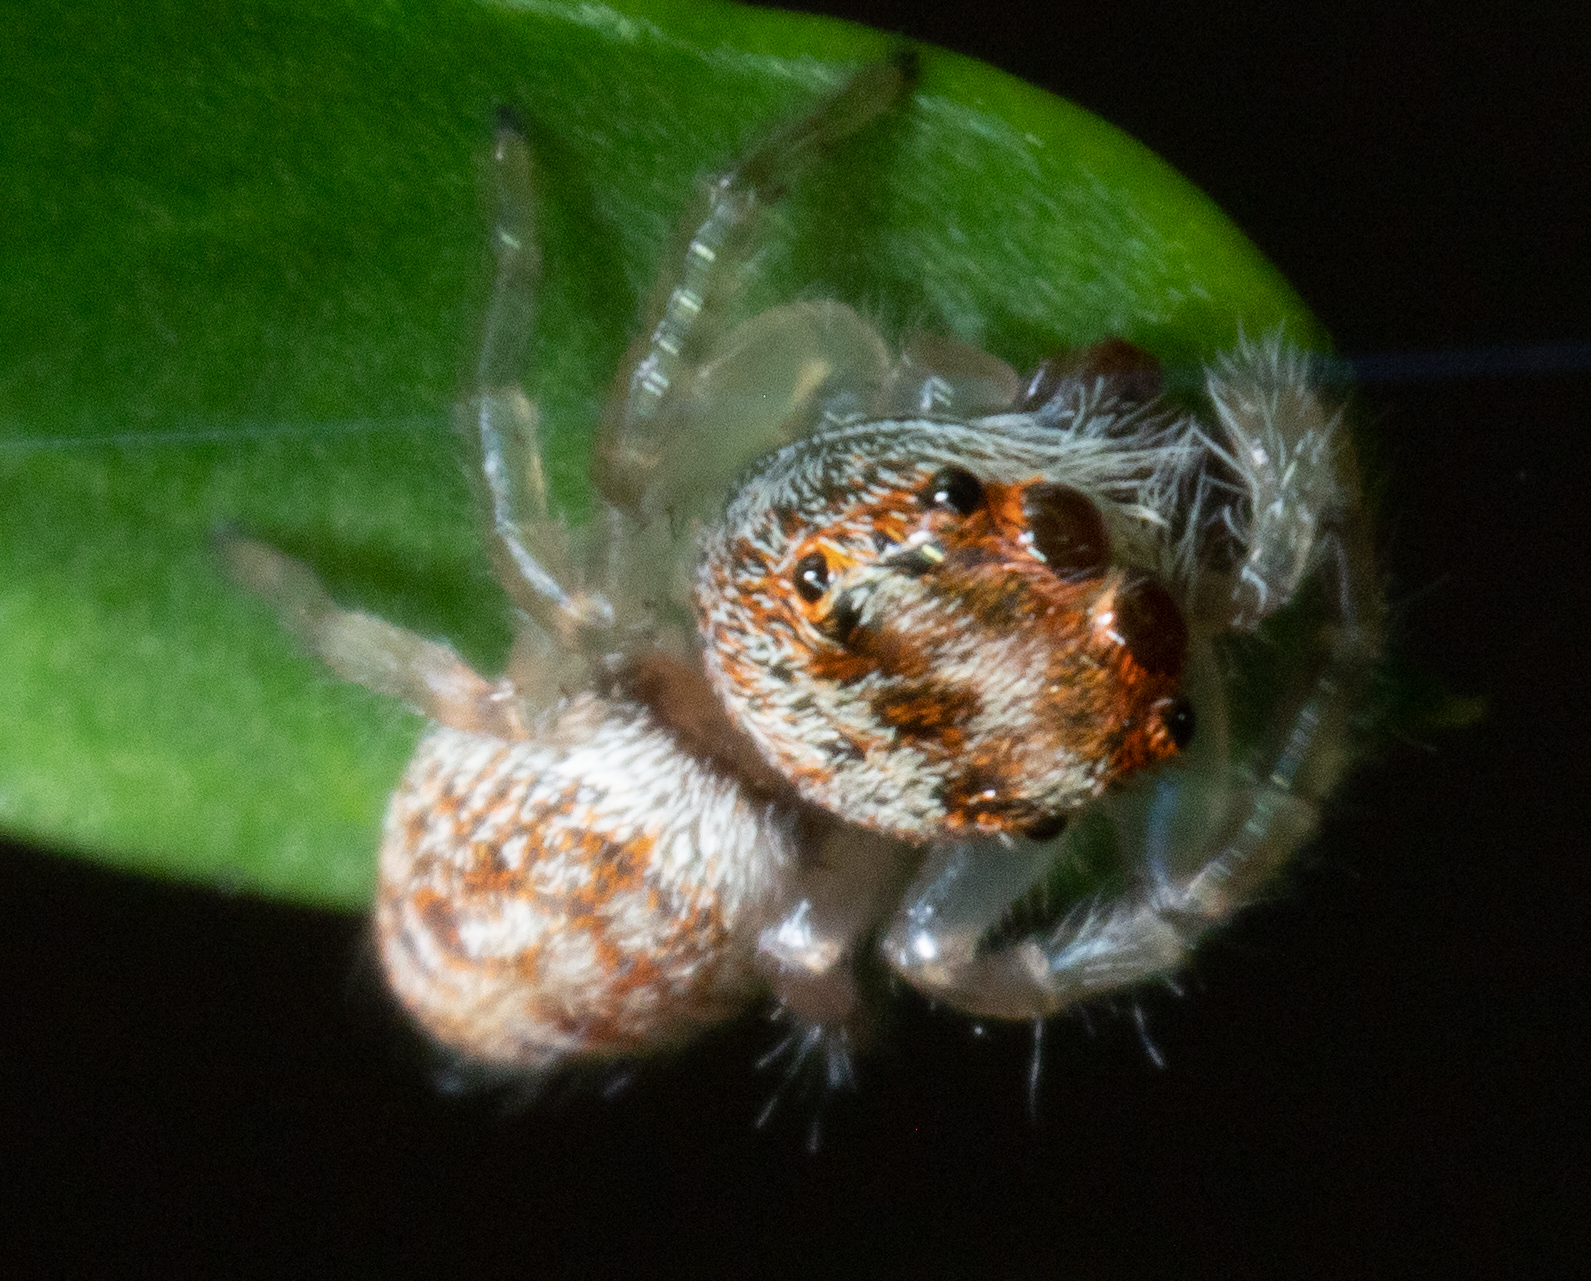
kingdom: Animalia
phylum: Arthropoda
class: Arachnida
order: Araneae
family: Salticidae
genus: Opisthoncus
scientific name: Opisthoncus
